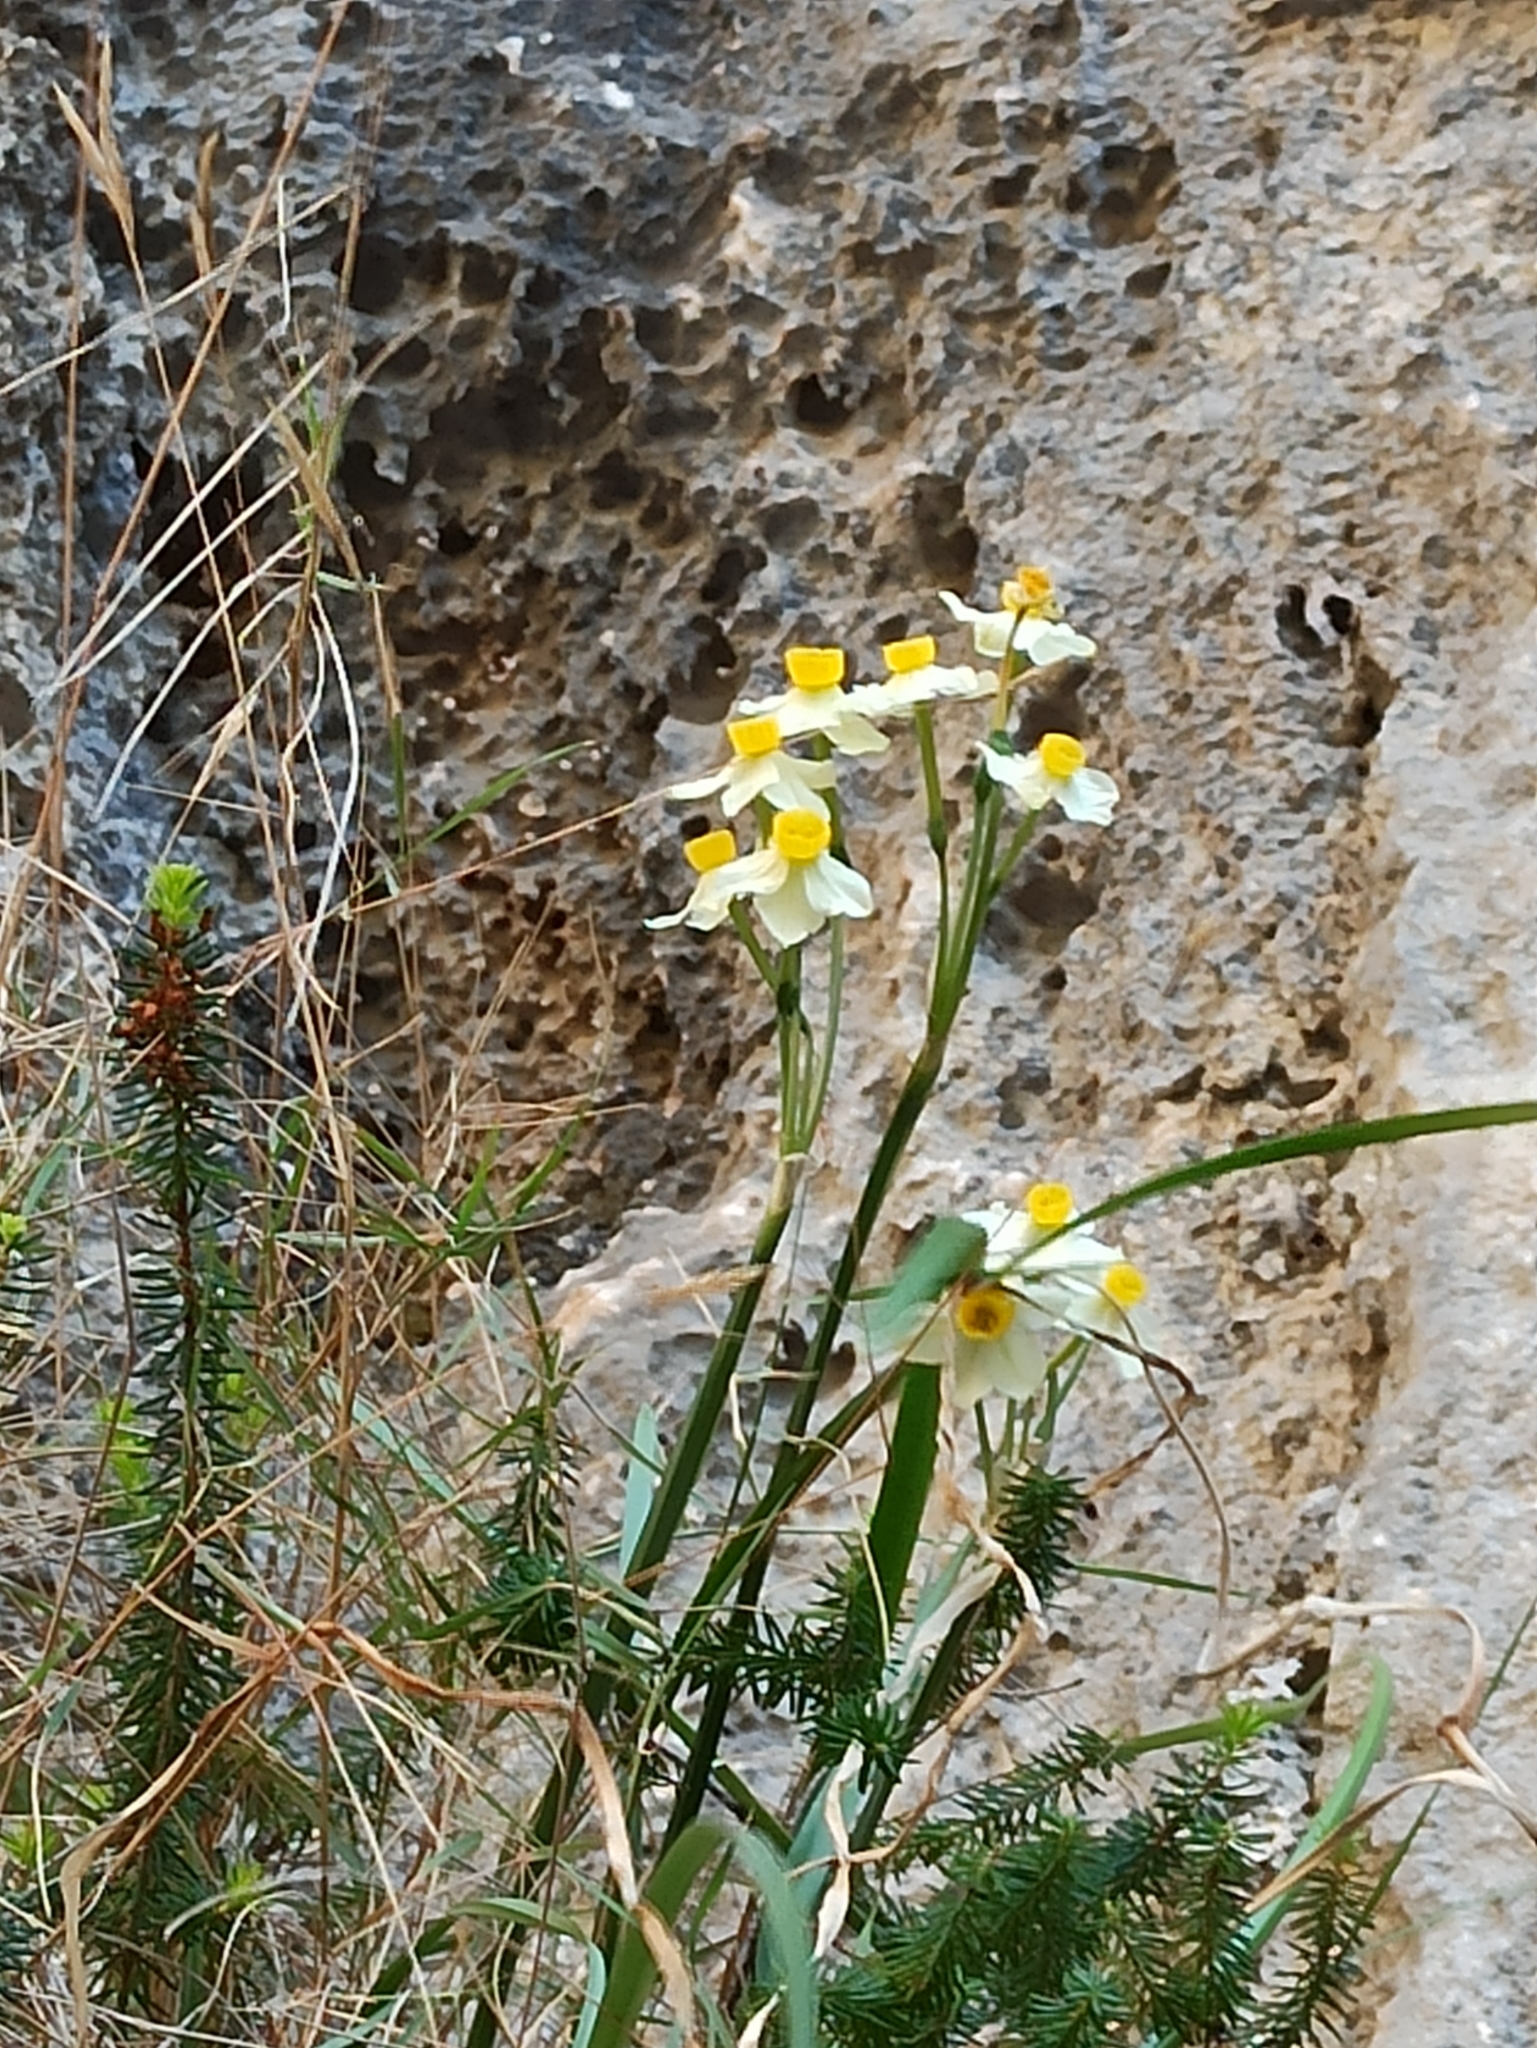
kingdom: Plantae
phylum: Tracheophyta
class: Liliopsida
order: Asparagales
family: Amaryllidaceae
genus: Narcissus
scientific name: Narcissus tazetta
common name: Bunch-flowered daffodil
